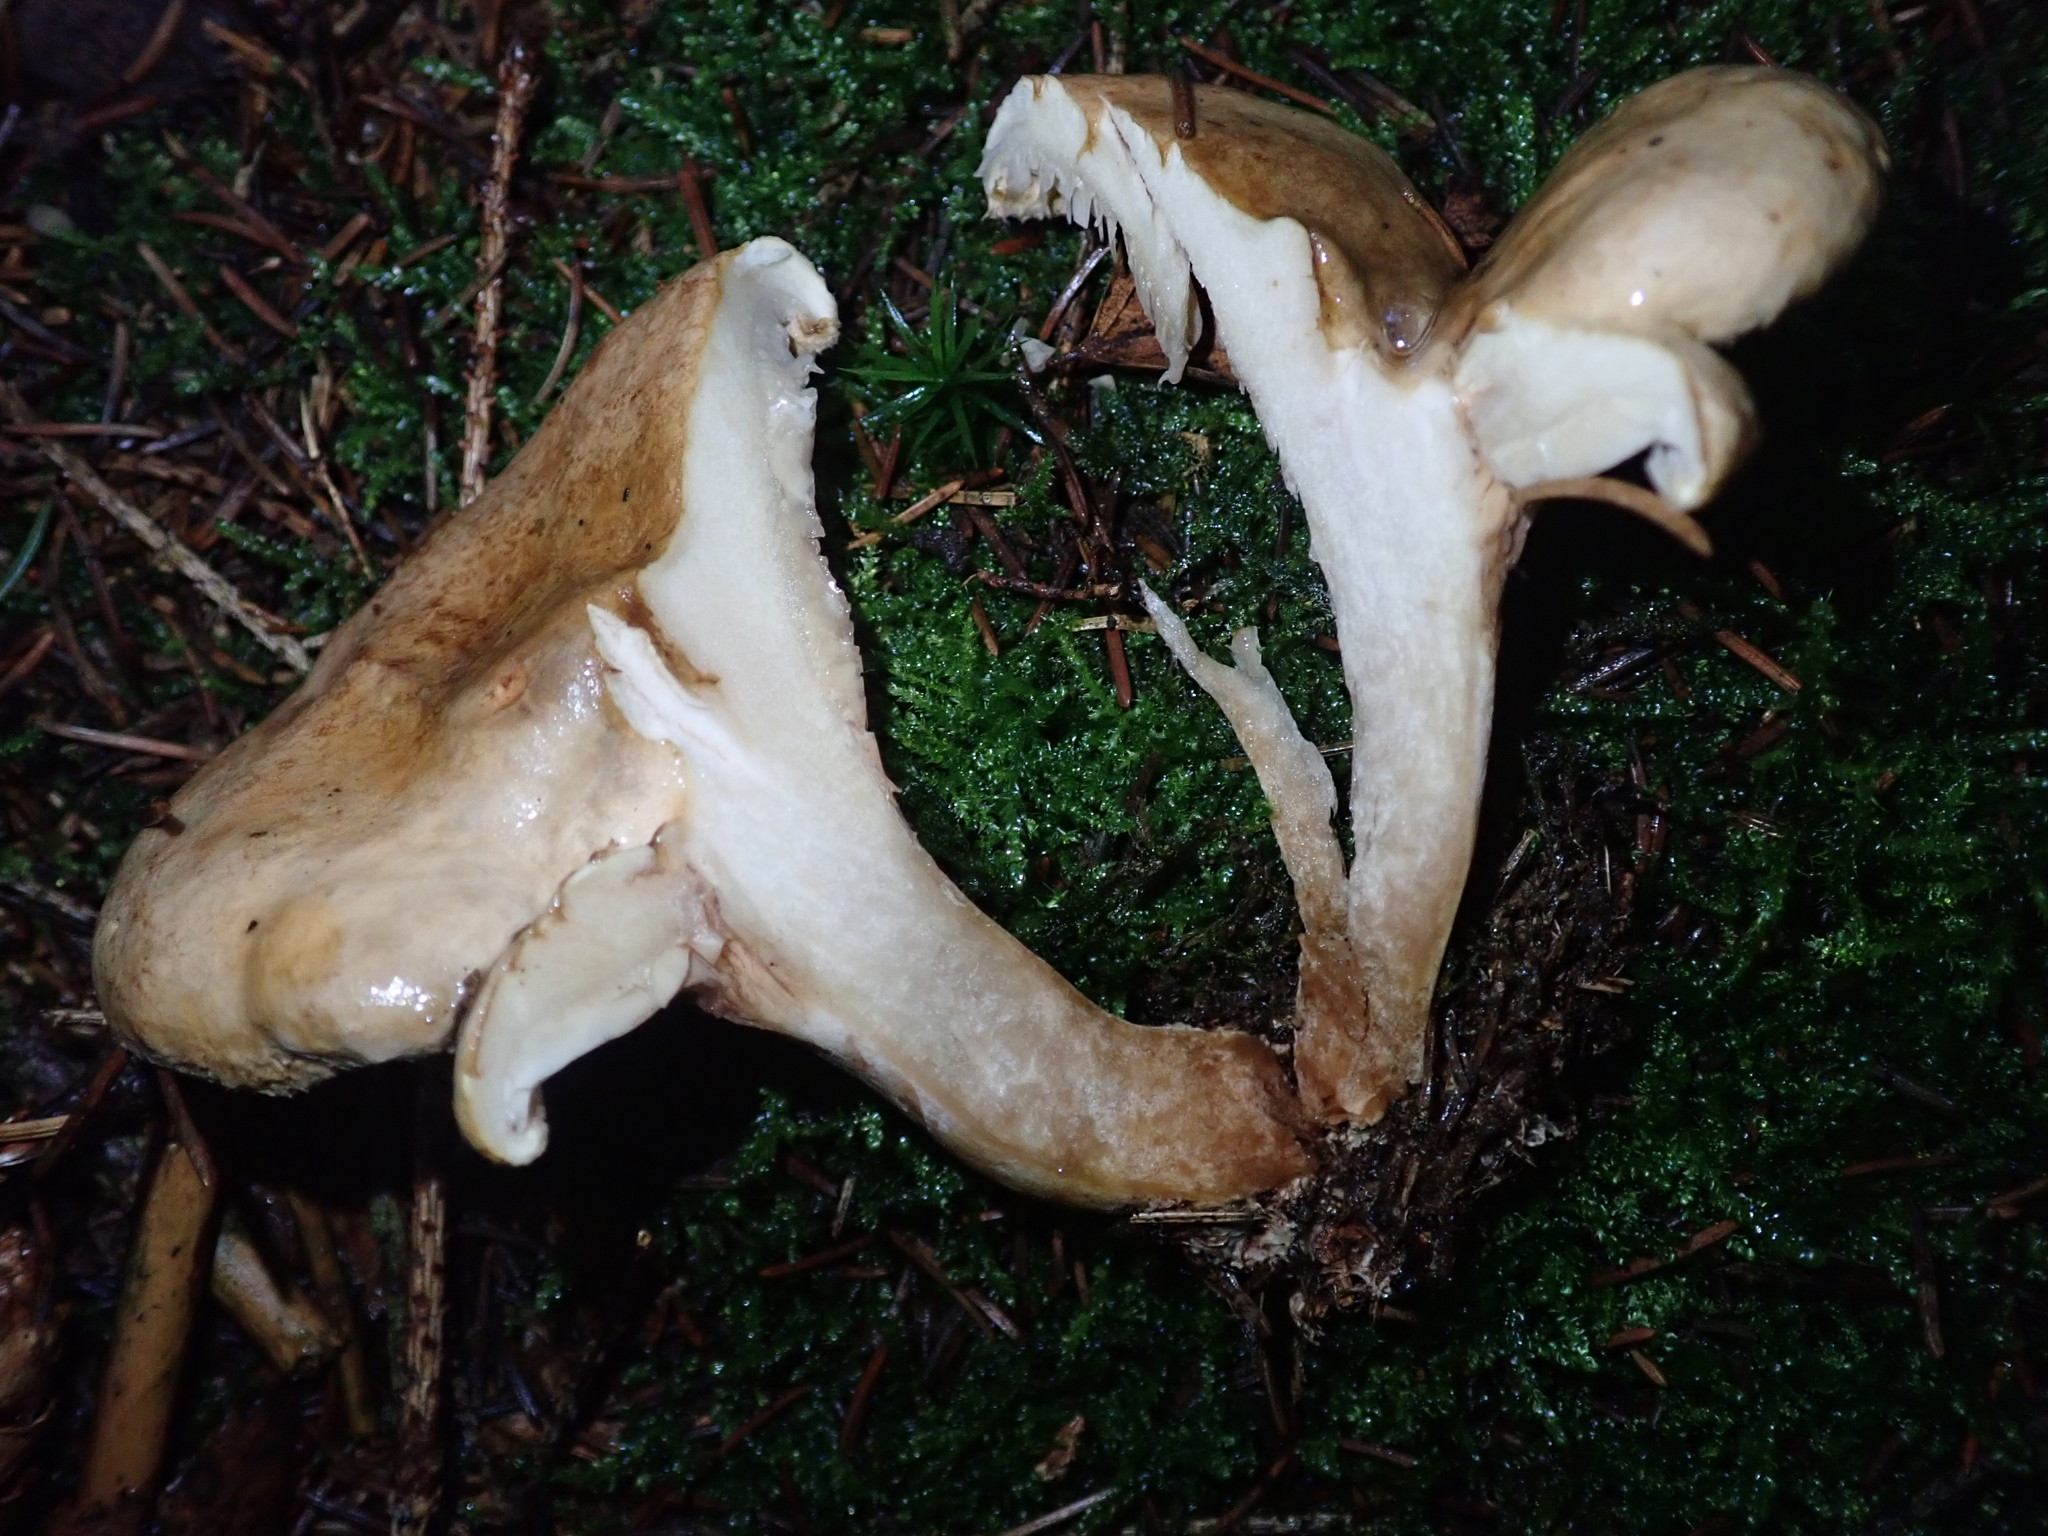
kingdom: Fungi
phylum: Basidiomycota
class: Agaricomycetes
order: Boletales
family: Paxillaceae
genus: Paxillus
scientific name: Paxillus involutus
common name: Brown roll rim
